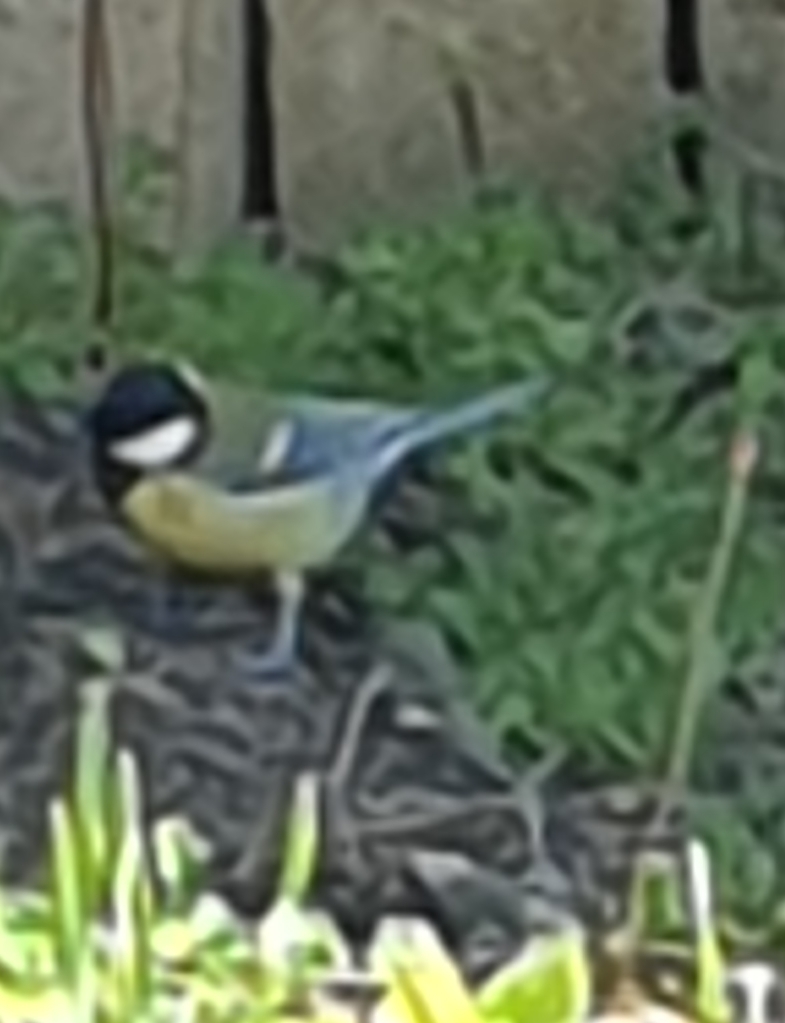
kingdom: Animalia
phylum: Chordata
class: Aves
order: Passeriformes
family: Paridae
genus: Parus
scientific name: Parus major
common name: Great tit
